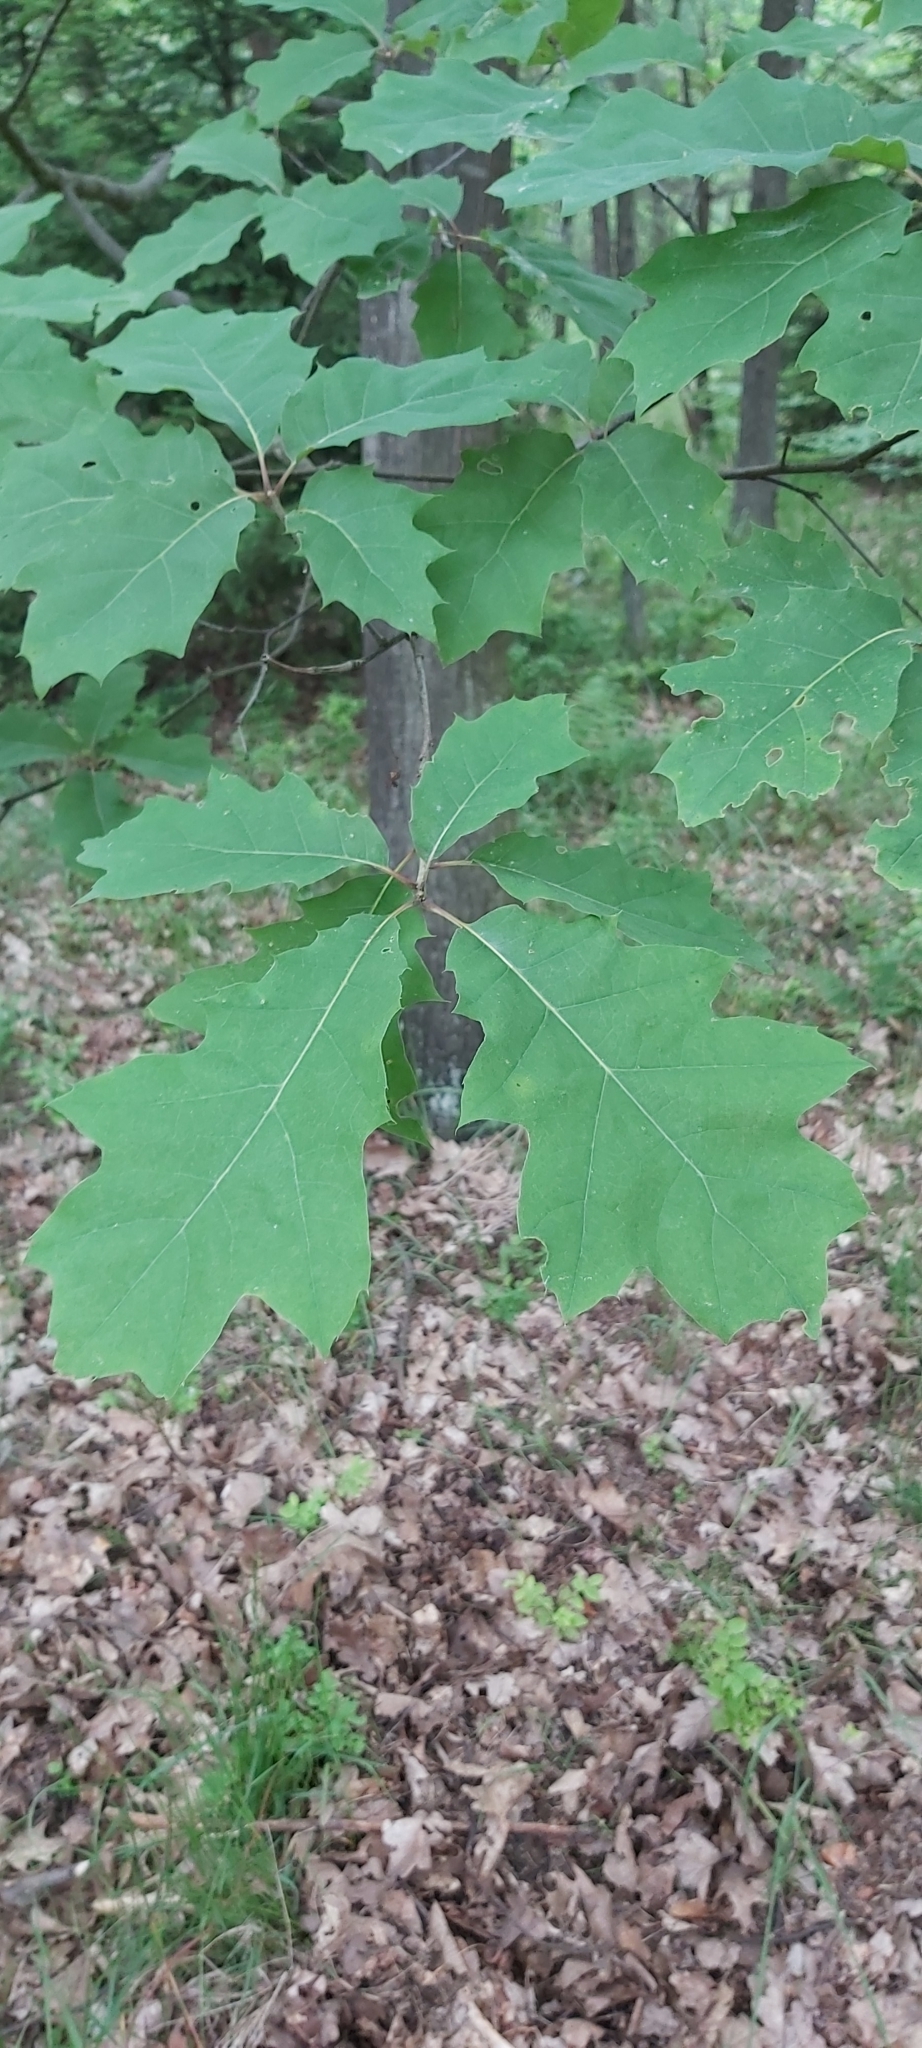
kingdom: Plantae
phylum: Tracheophyta
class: Magnoliopsida
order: Fagales
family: Fagaceae
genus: Quercus
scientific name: Quercus rubra
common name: Red oak
